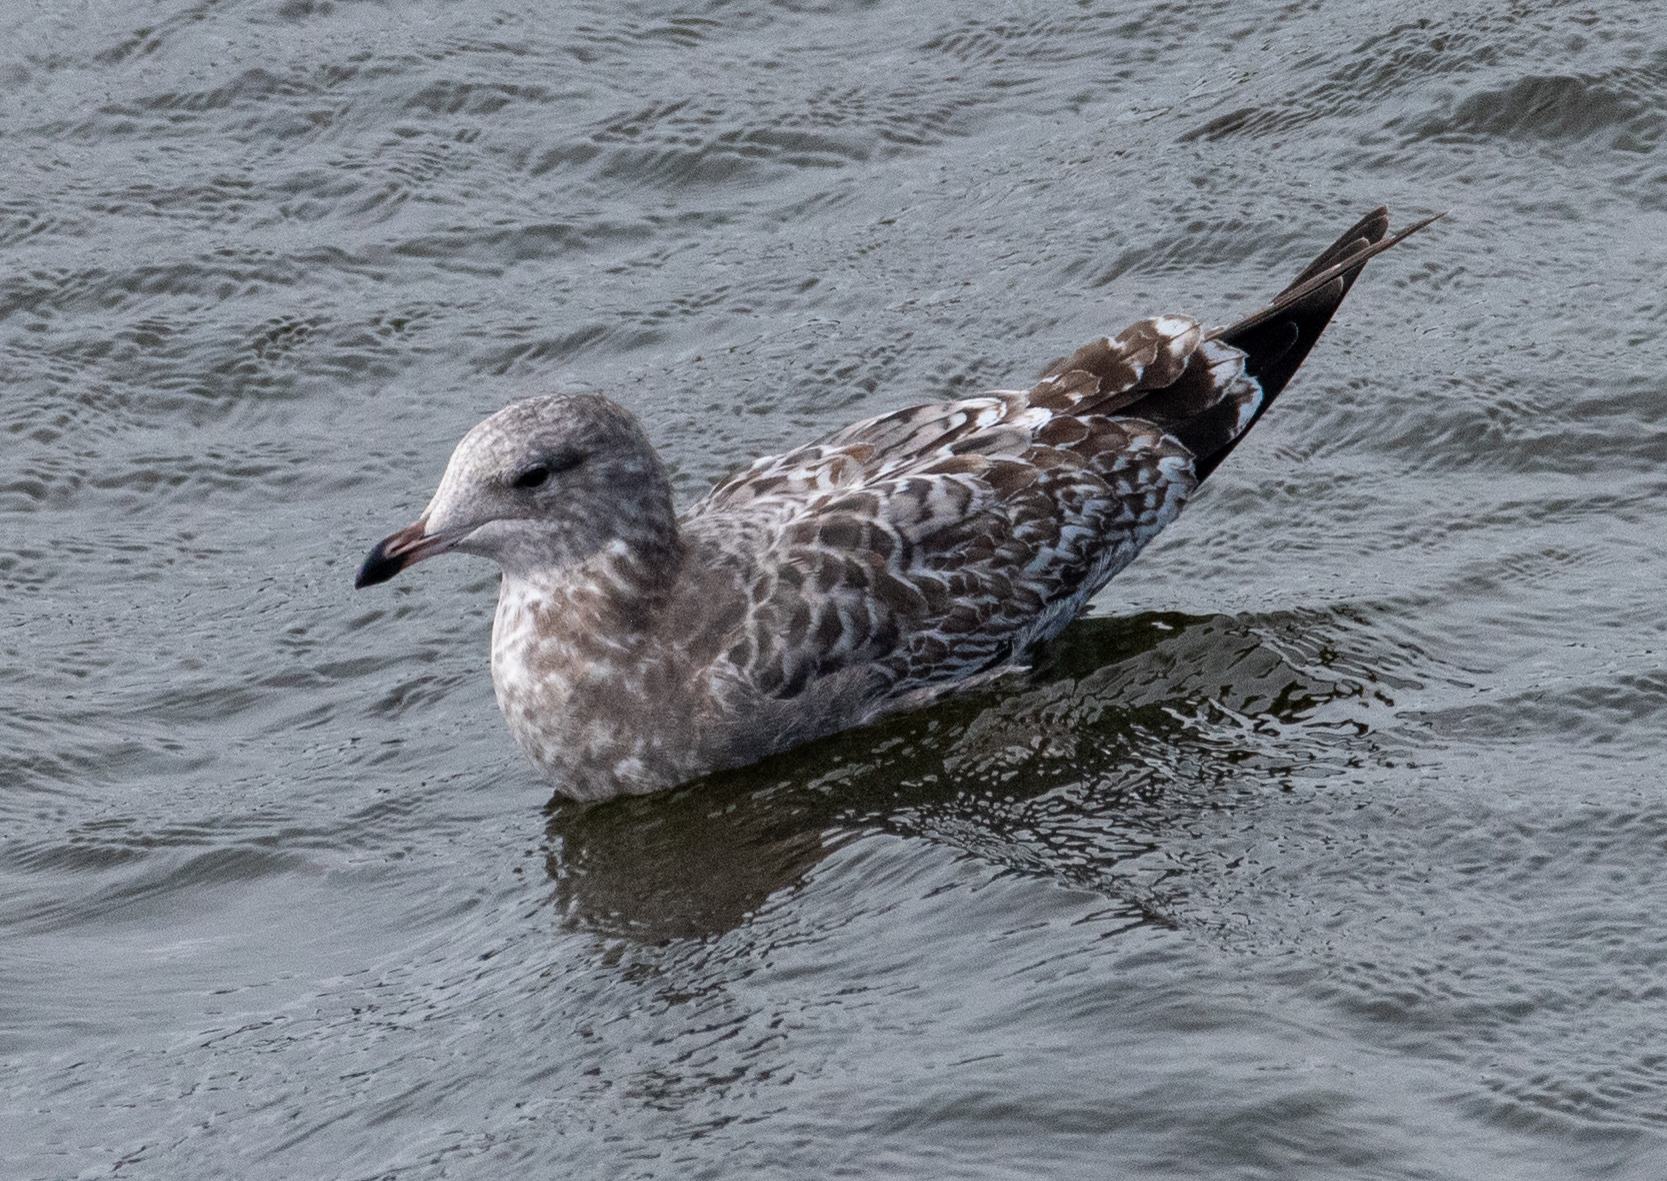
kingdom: Animalia
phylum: Chordata
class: Aves
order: Charadriiformes
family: Laridae
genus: Larus
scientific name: Larus californicus
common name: California gull
